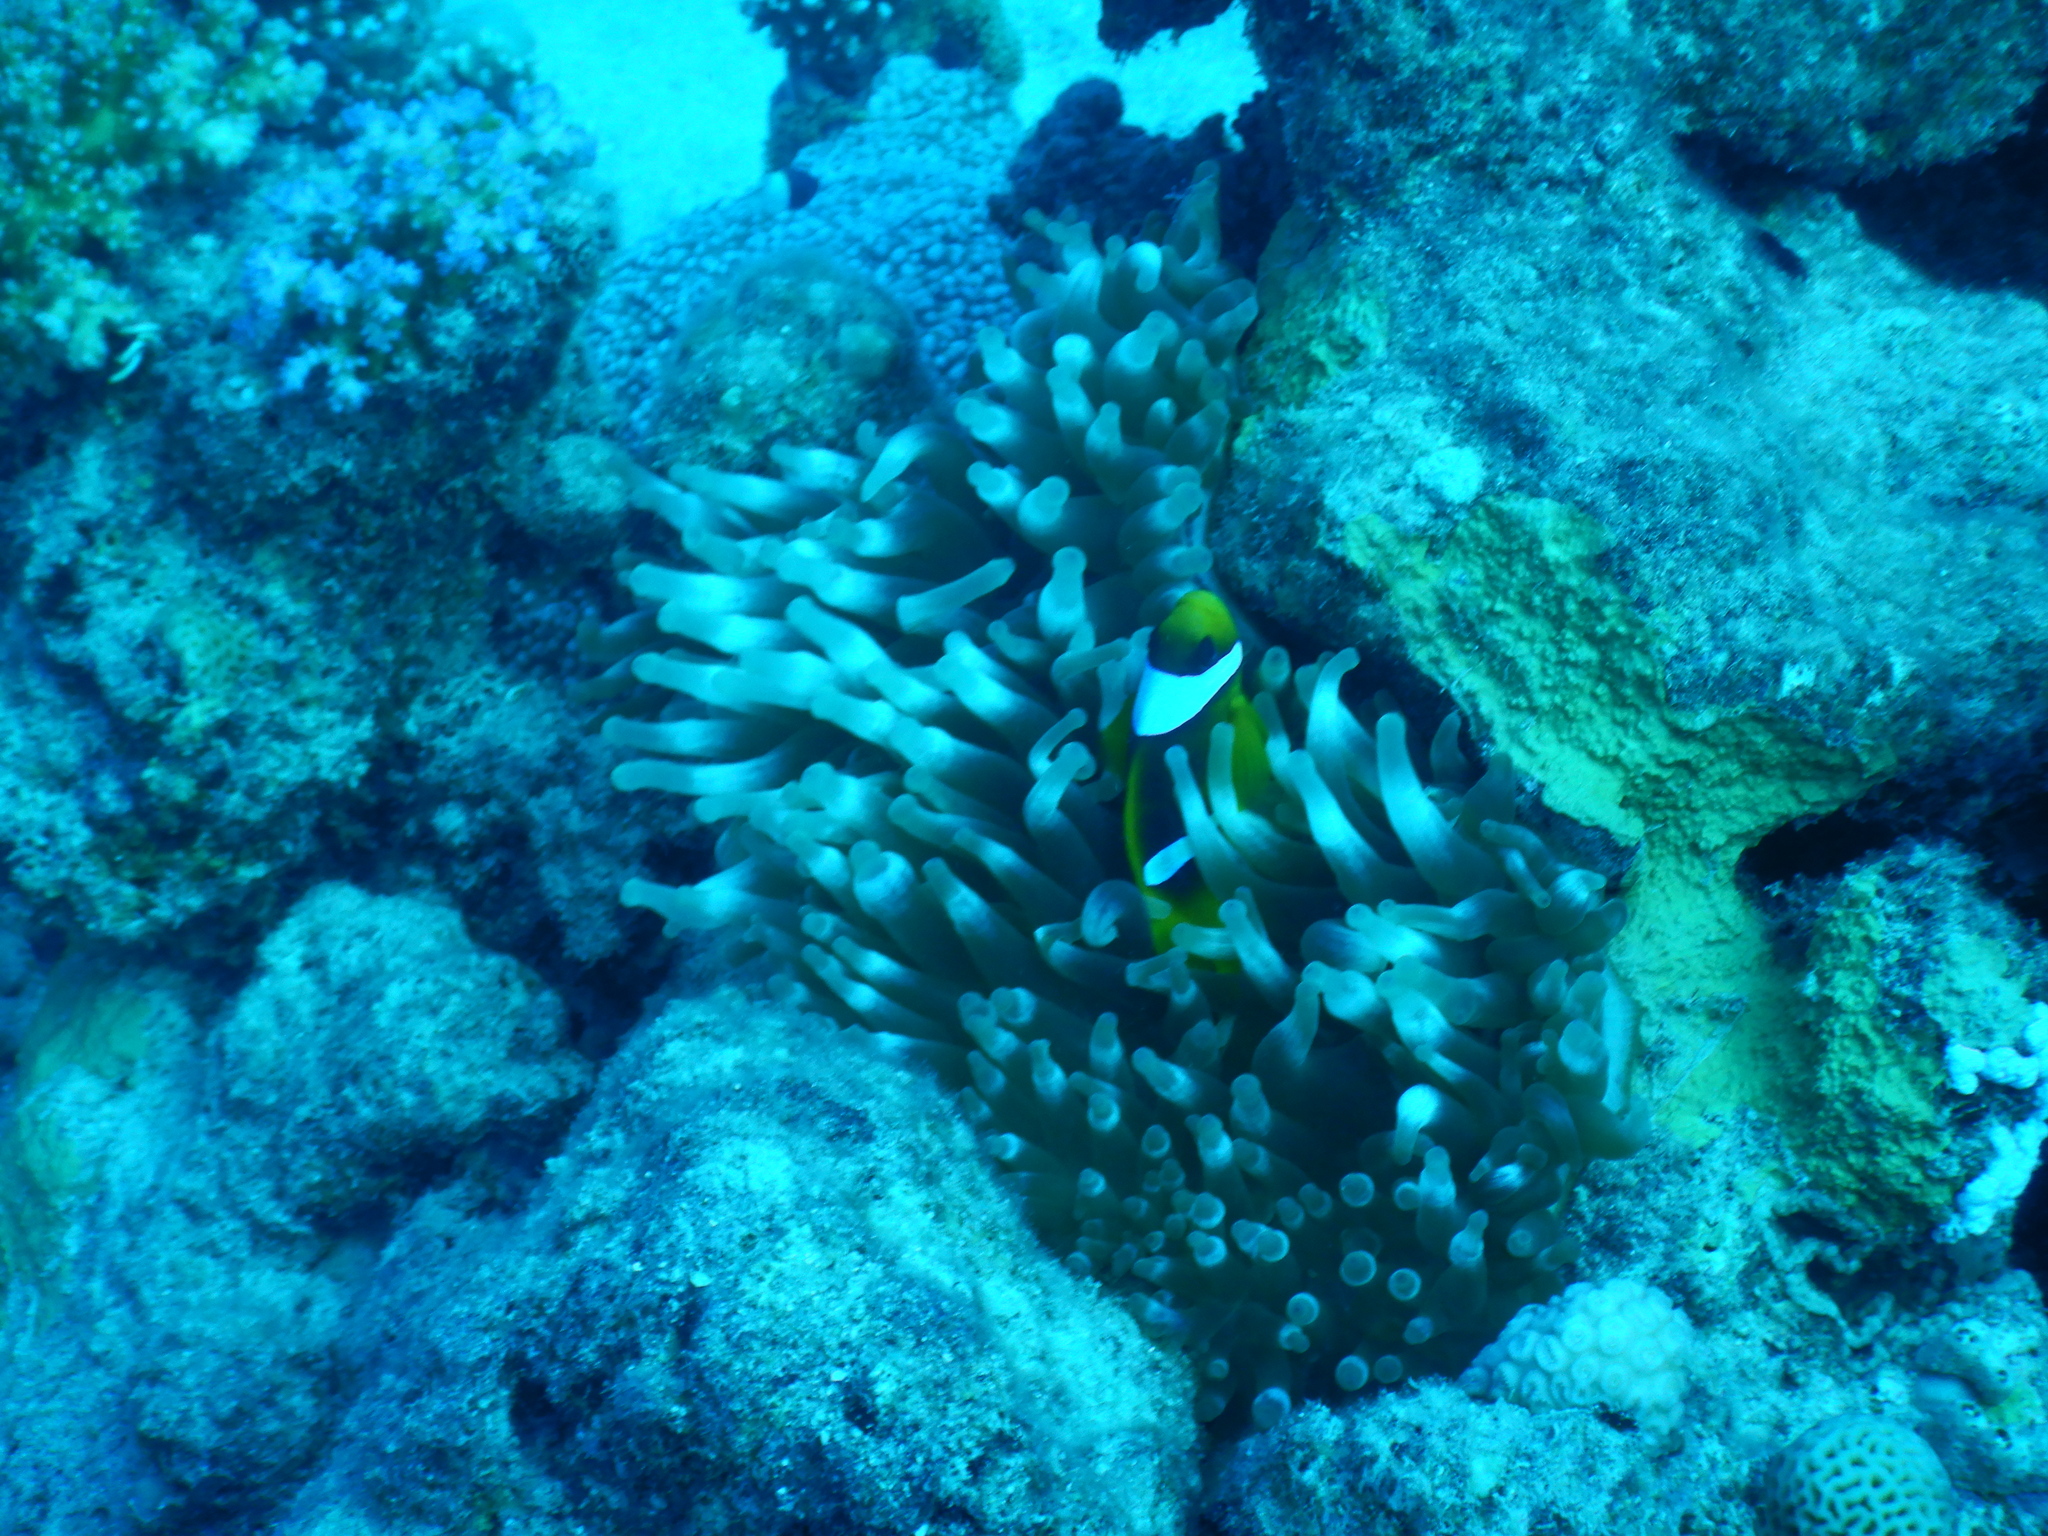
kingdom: Animalia
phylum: Chordata
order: Perciformes
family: Pomacentridae
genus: Amphiprion
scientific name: Amphiprion bicinctus
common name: Two-banded anemonefish
